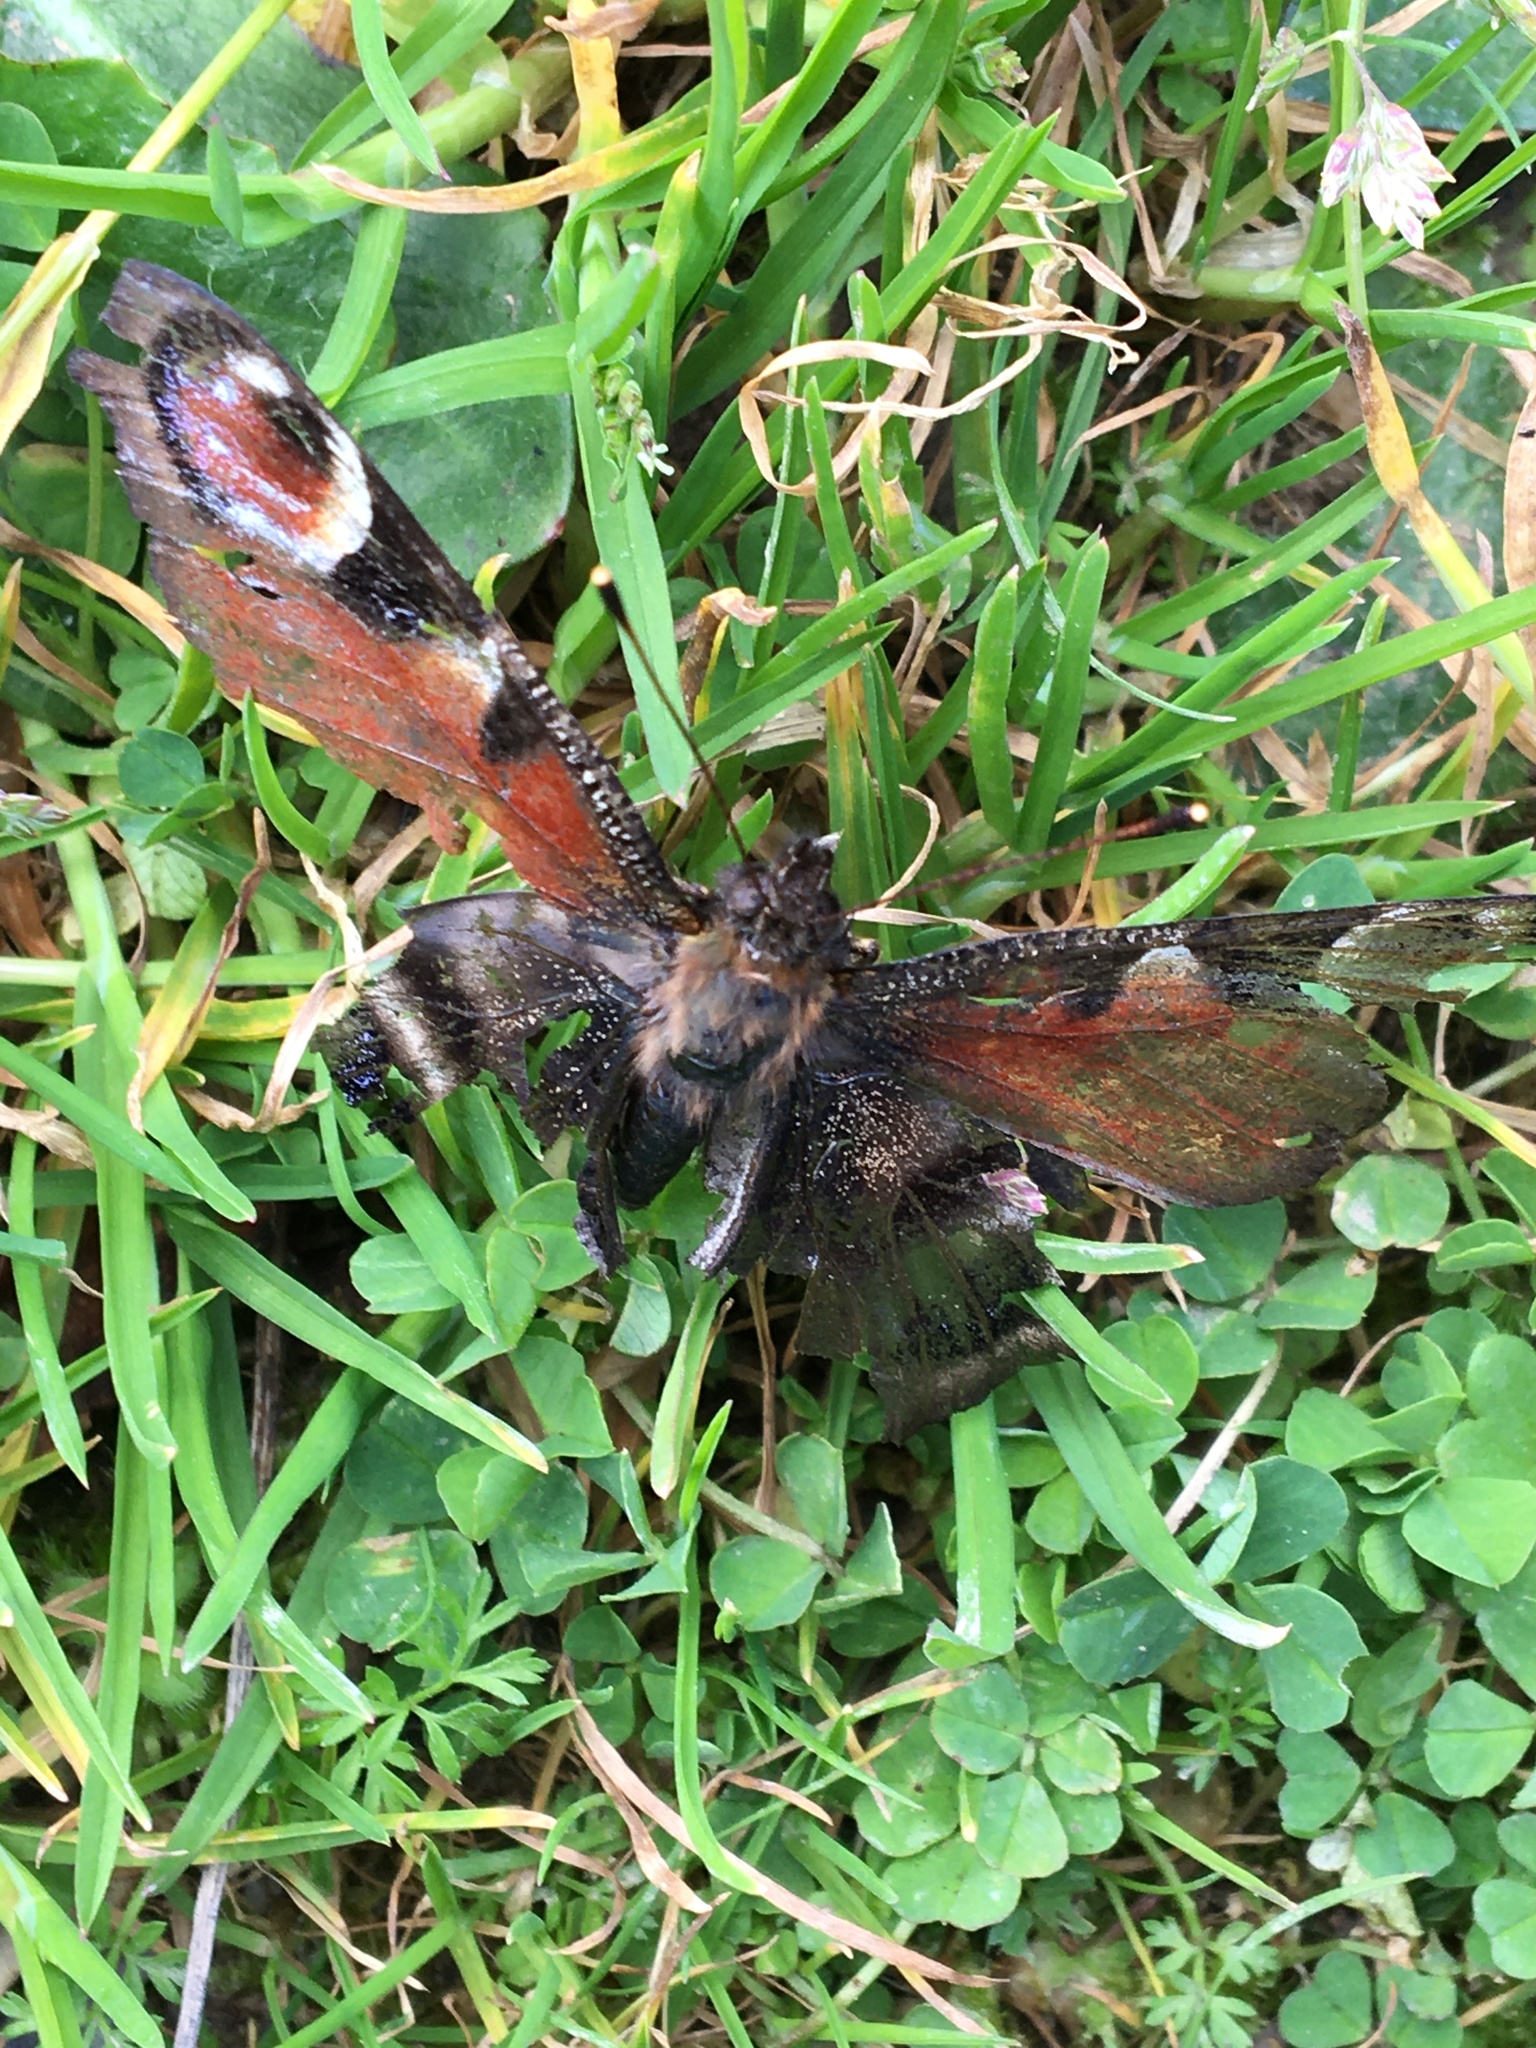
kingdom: Animalia
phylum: Arthropoda
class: Insecta
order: Lepidoptera
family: Nymphalidae
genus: Aglais
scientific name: Aglais io
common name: Peacock
